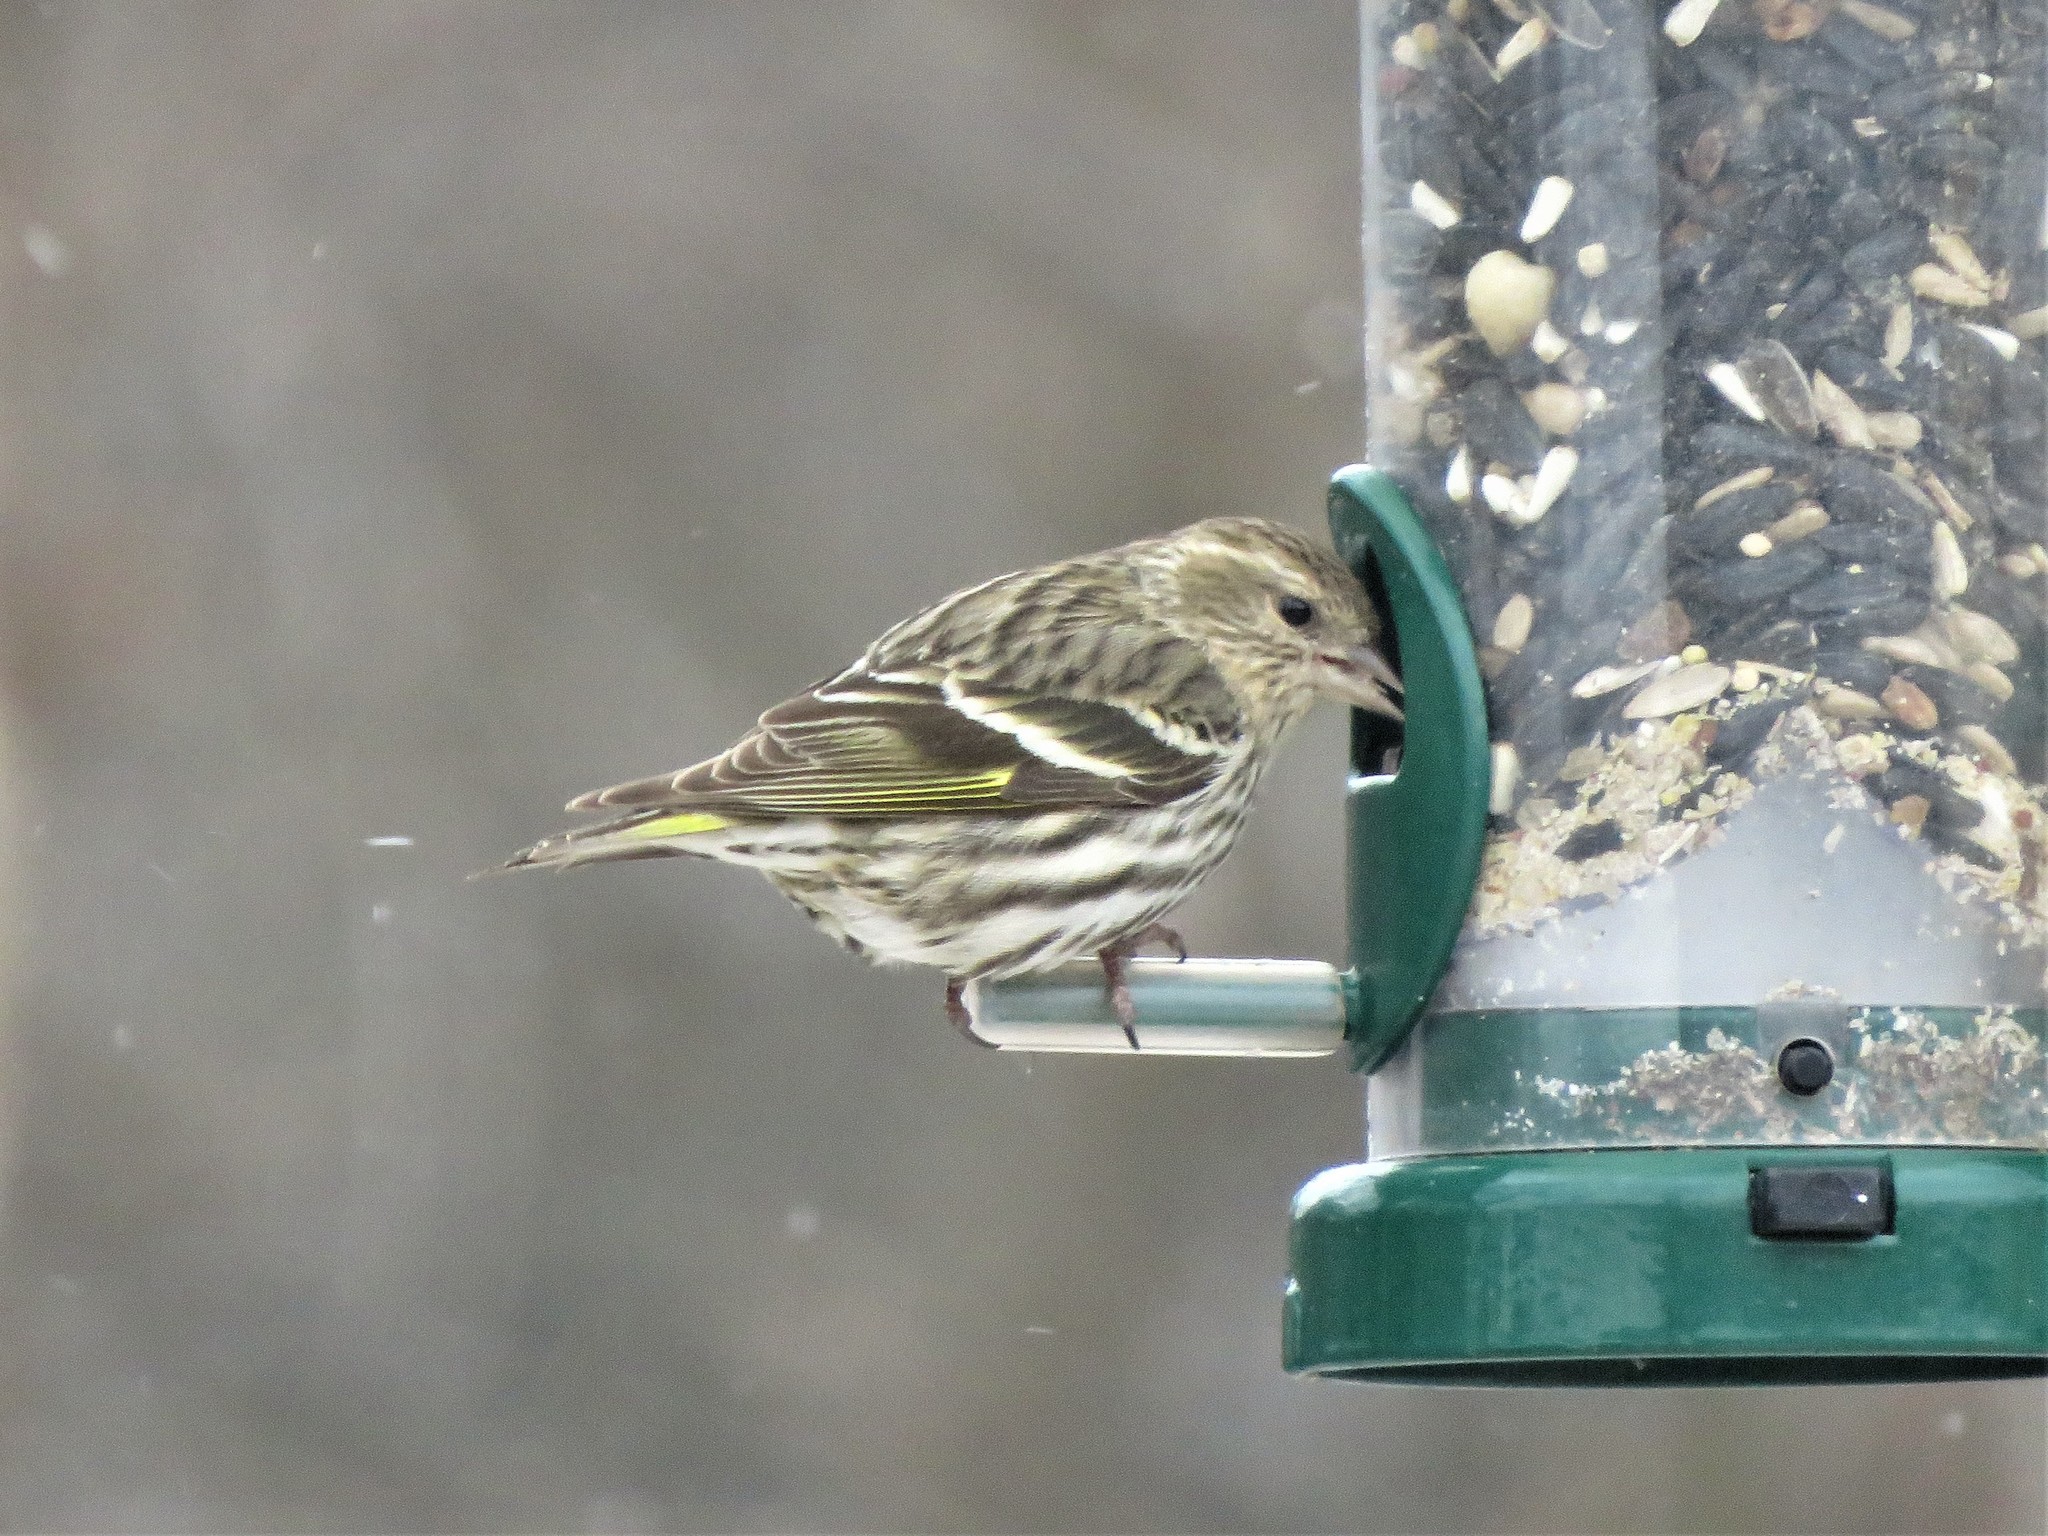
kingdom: Animalia
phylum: Chordata
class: Aves
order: Passeriformes
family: Fringillidae
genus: Spinus
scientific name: Spinus pinus
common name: Pine siskin
